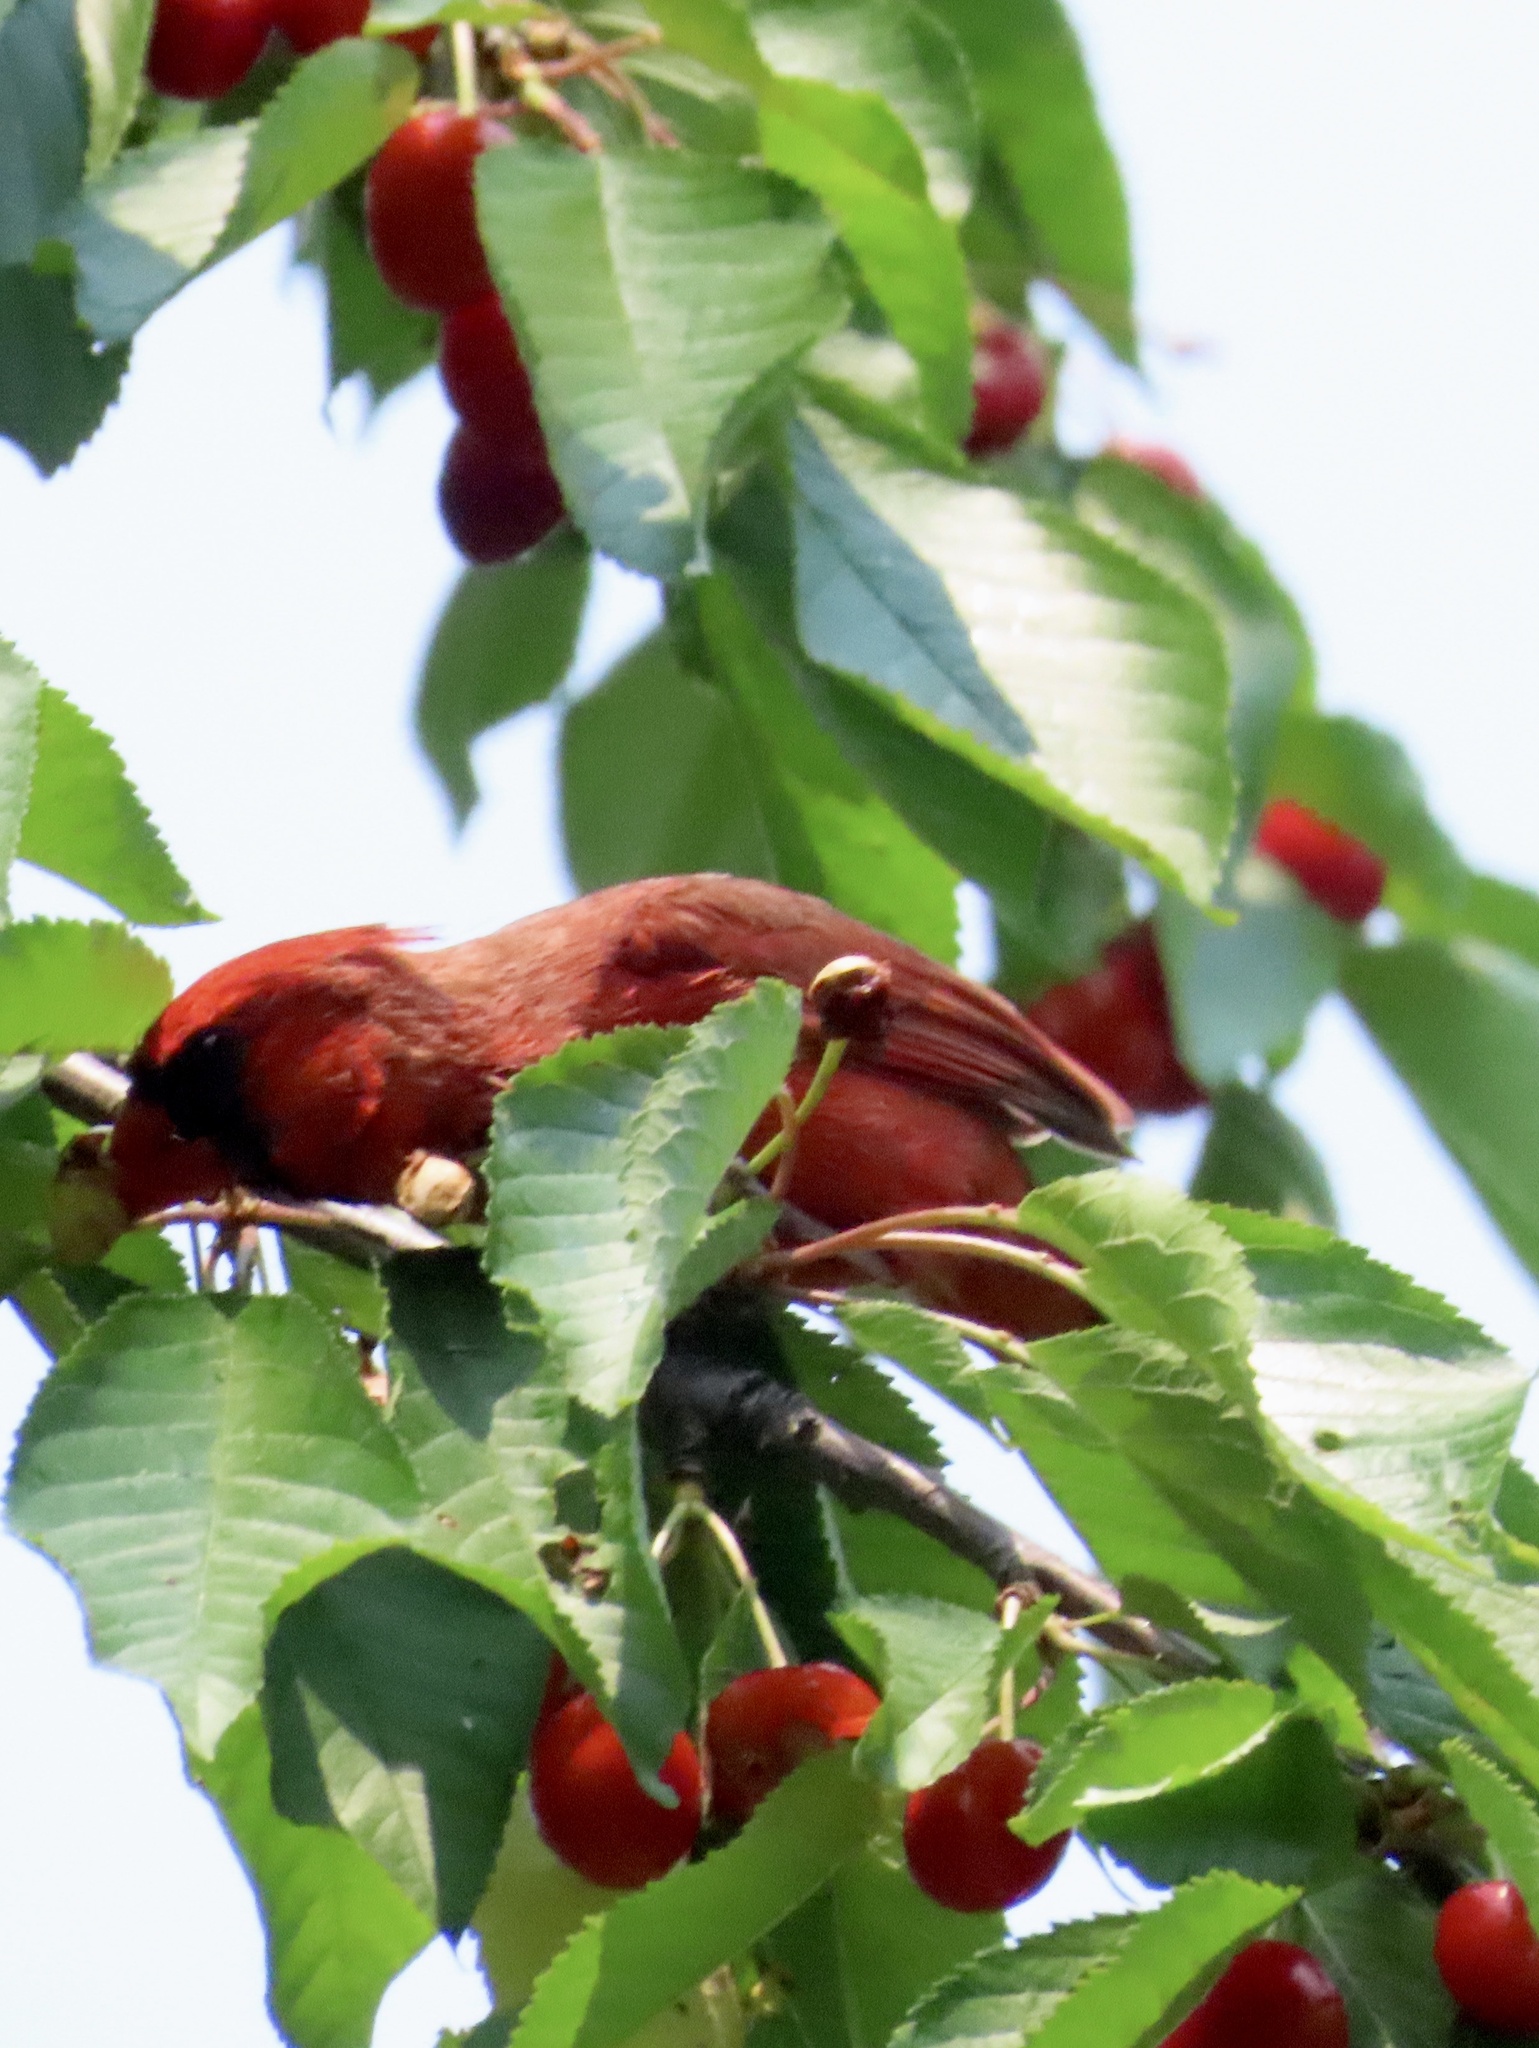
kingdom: Animalia
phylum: Chordata
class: Aves
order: Passeriformes
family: Cardinalidae
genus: Cardinalis
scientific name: Cardinalis cardinalis
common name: Northern cardinal
